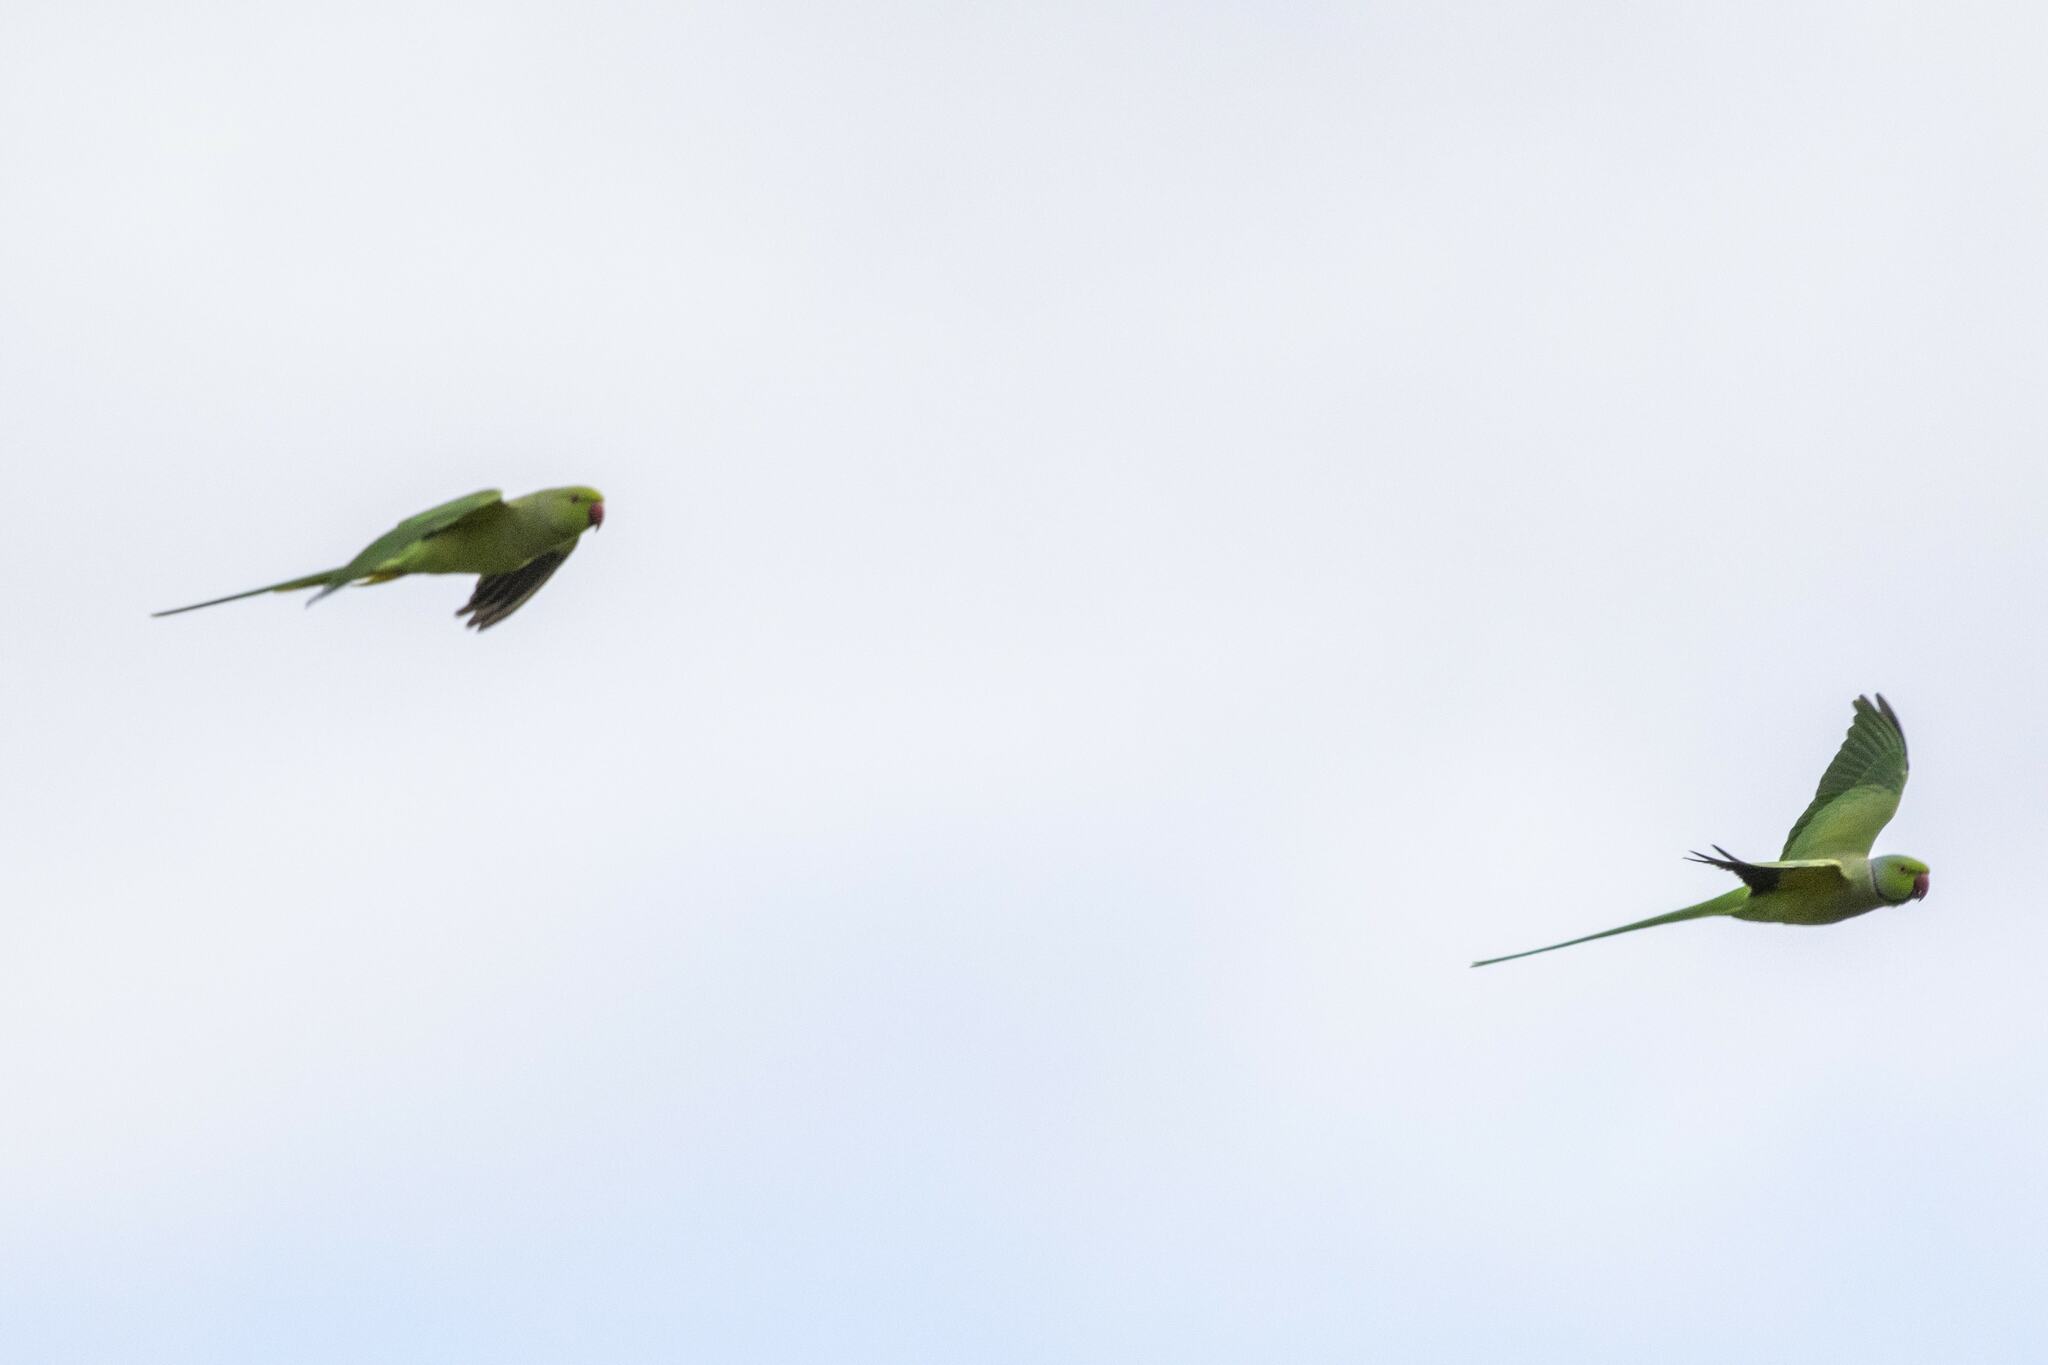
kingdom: Animalia
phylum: Chordata
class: Aves
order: Psittaciformes
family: Psittacidae
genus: Psittacula
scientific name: Psittacula krameri
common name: Rose-ringed parakeet
